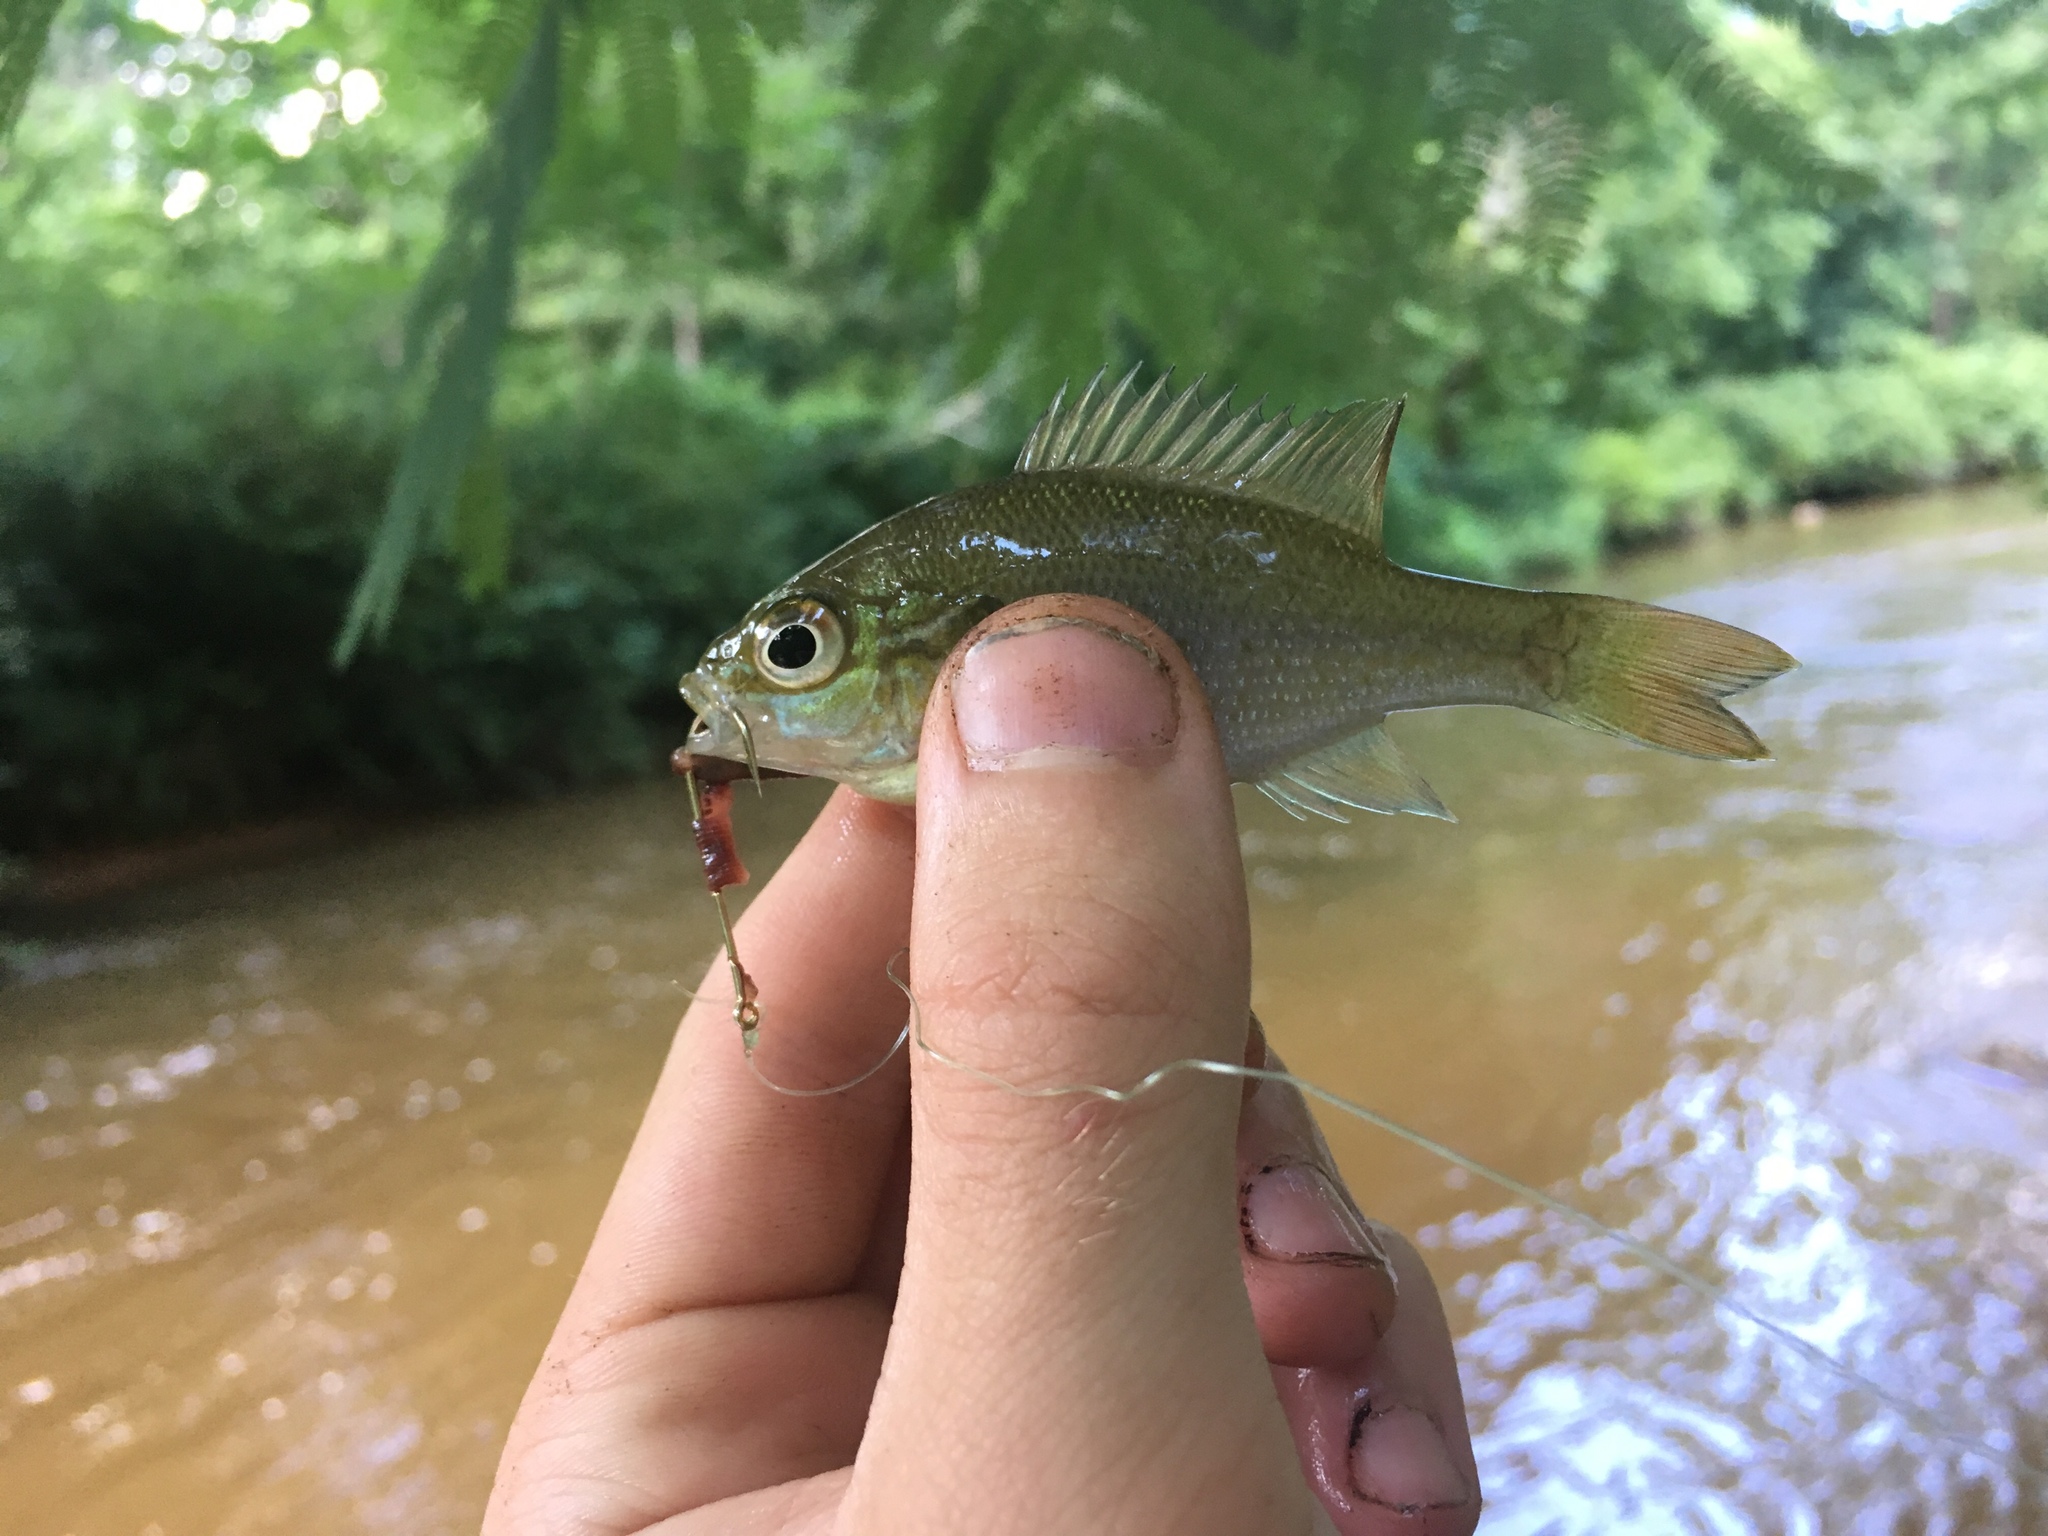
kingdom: Animalia
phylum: Chordata
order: Perciformes
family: Centrarchidae
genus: Lepomis
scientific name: Lepomis auritus
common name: Redbreast sunfish
